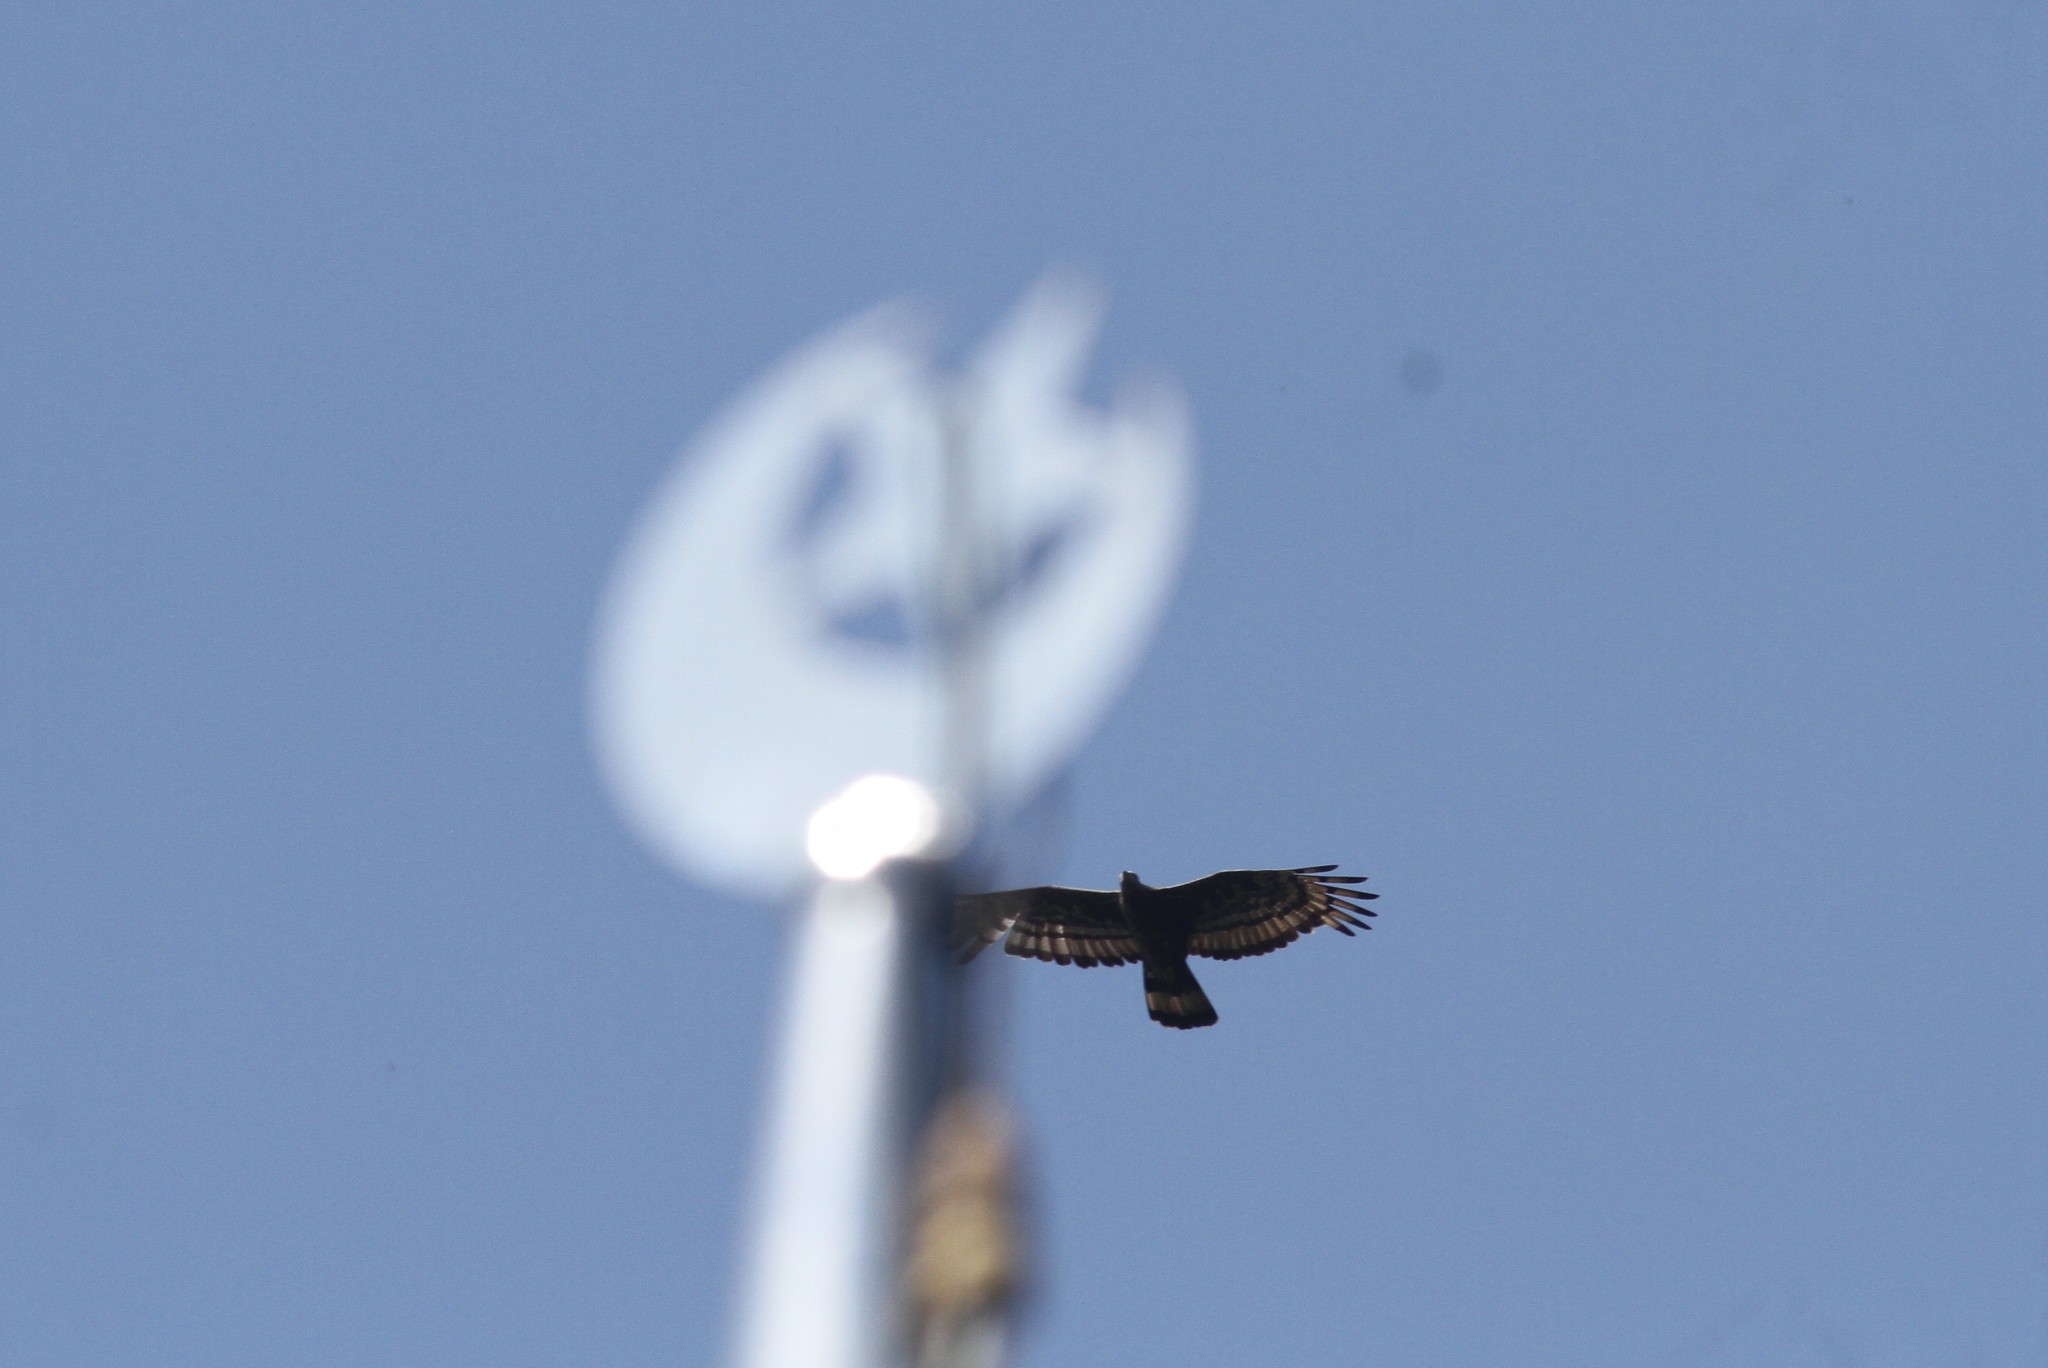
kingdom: Animalia
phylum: Chordata
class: Aves
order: Accipitriformes
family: Accipitridae
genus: Pernis
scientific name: Pernis ptilorhynchus
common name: Crested honey buzzard
